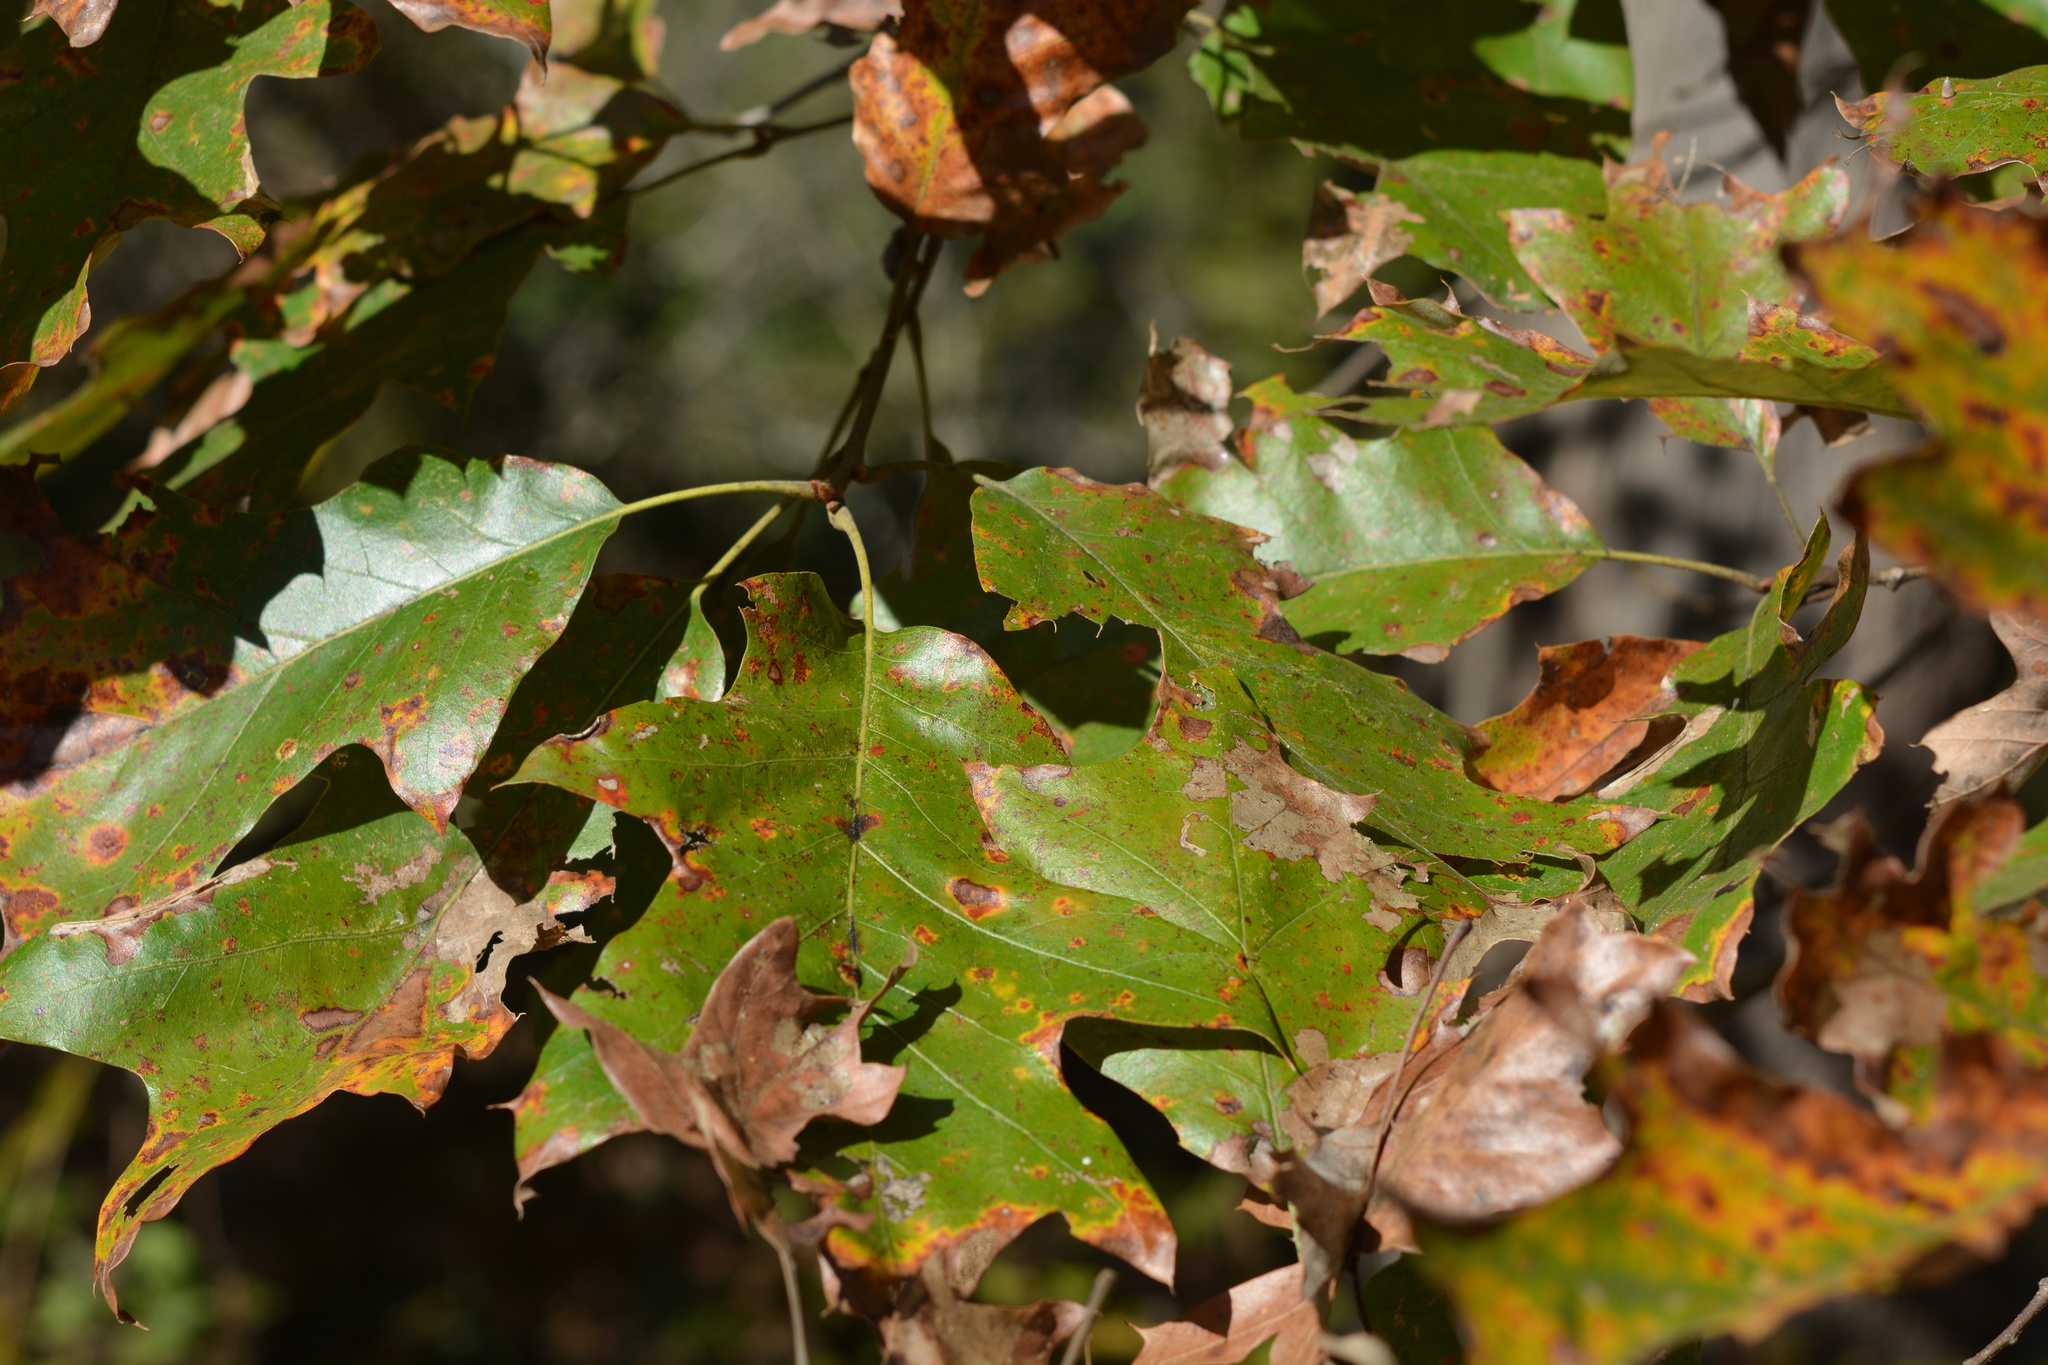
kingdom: Plantae
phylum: Tracheophyta
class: Magnoliopsida
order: Fagales
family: Fagaceae
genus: Quercus
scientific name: Quercus falcata
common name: Southern red oak
